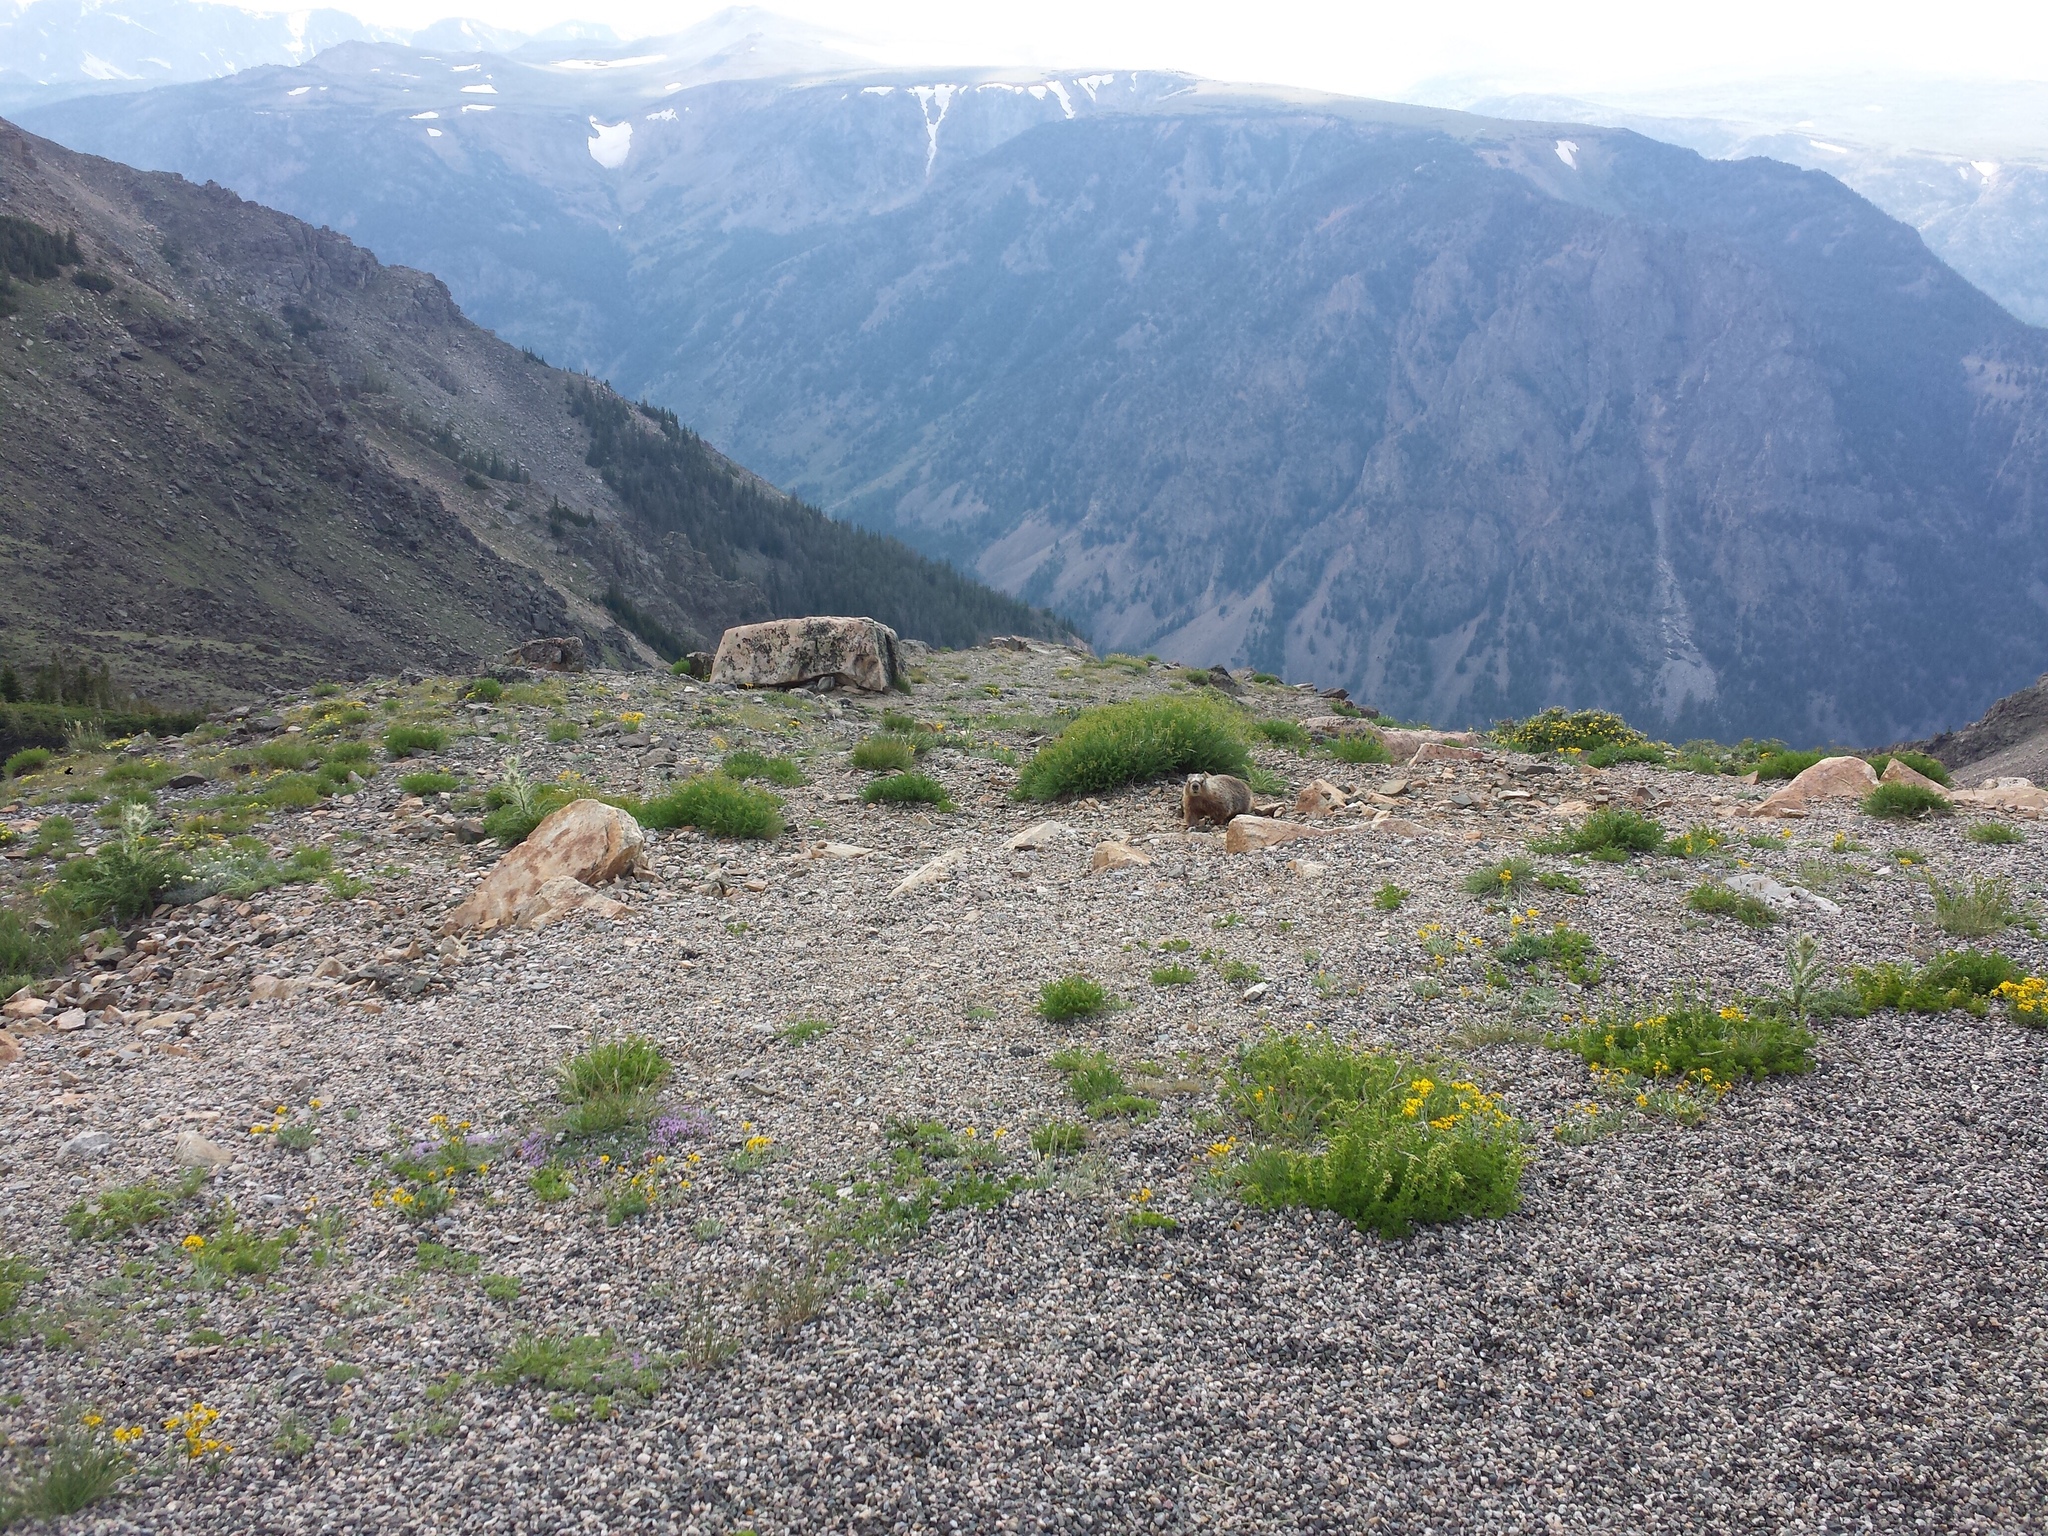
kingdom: Animalia
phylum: Chordata
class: Mammalia
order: Rodentia
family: Sciuridae
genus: Marmota
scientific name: Marmota flaviventris
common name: Yellow-bellied marmot
